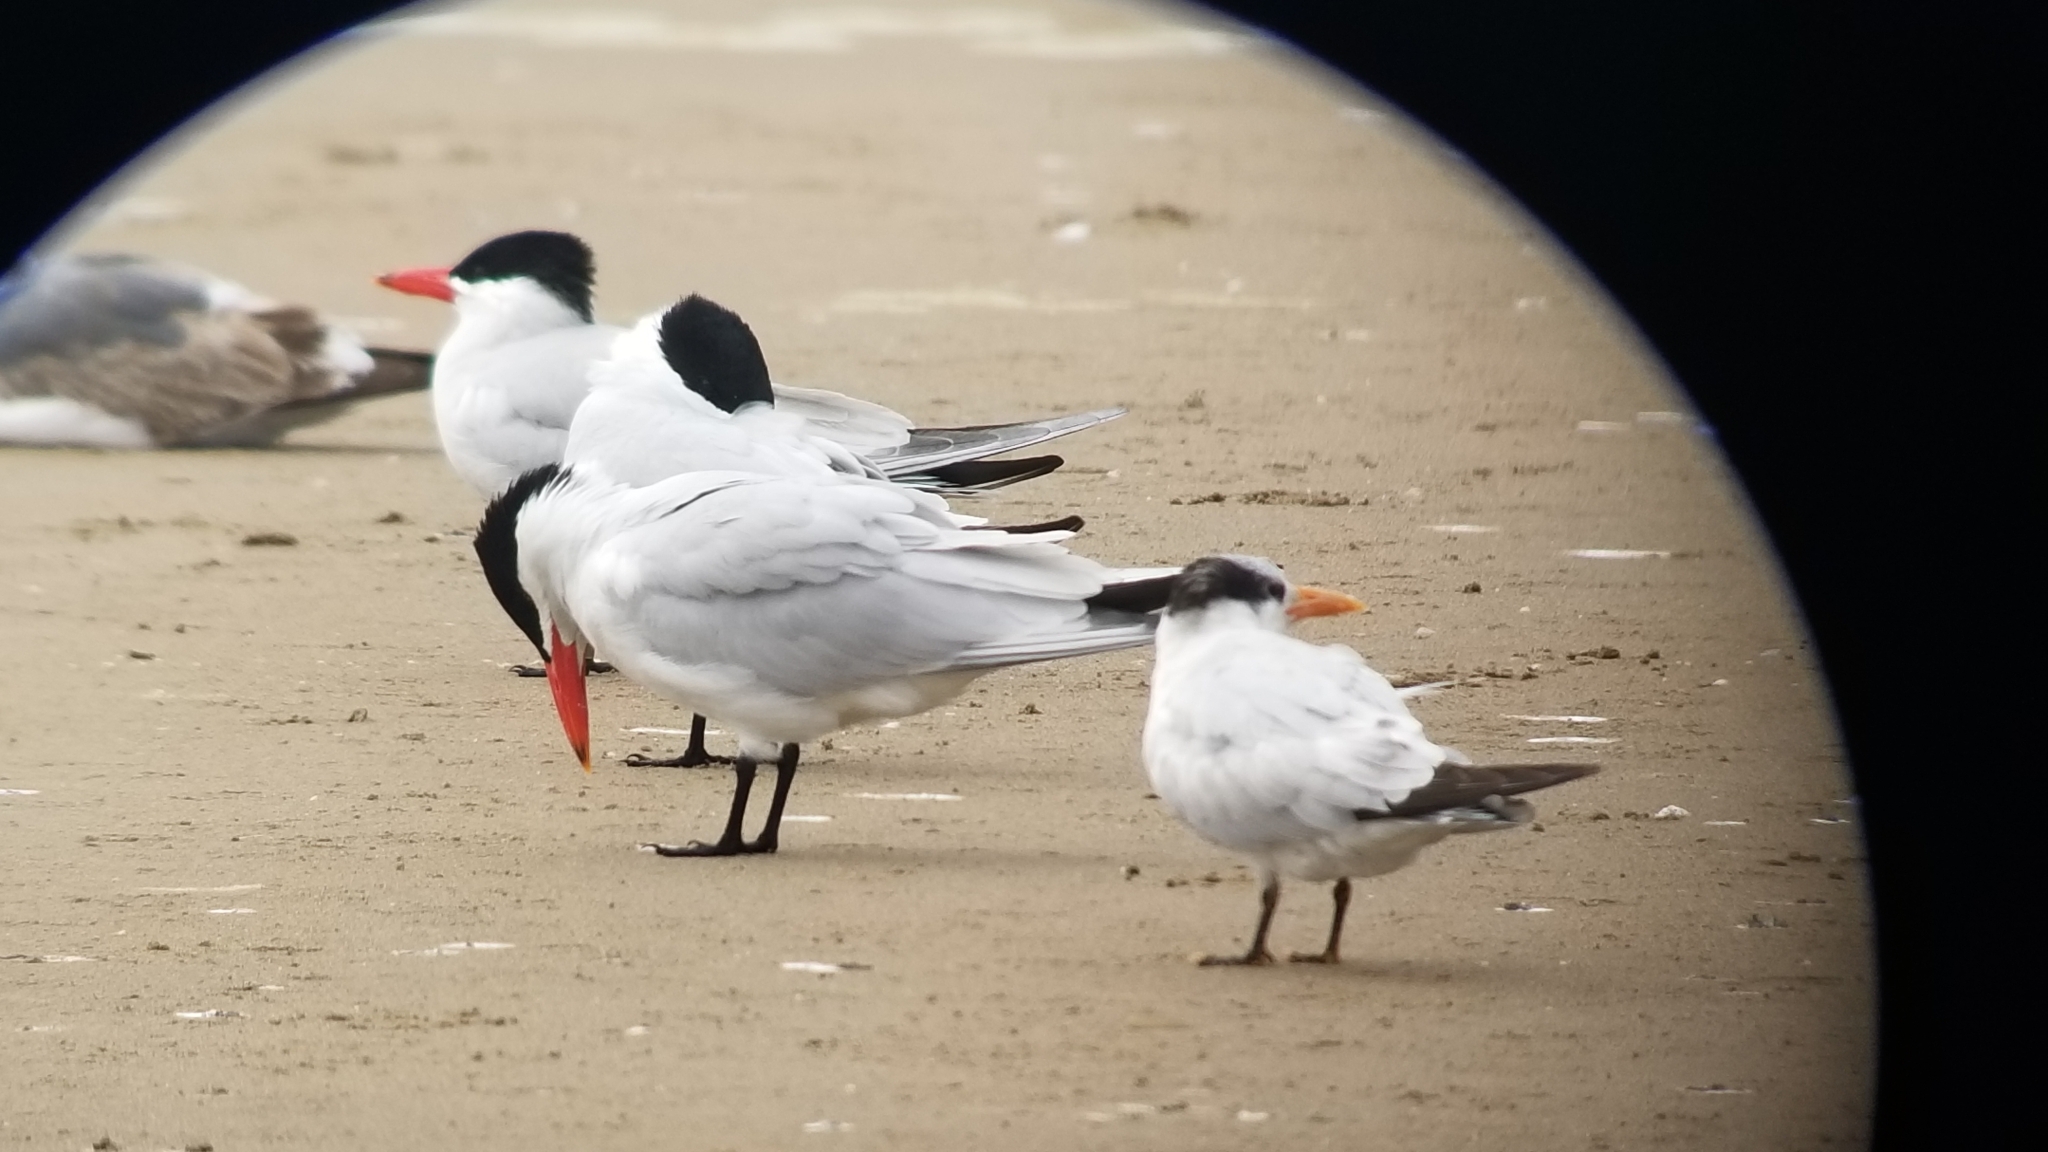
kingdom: Animalia
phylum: Chordata
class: Aves
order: Charadriiformes
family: Laridae
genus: Thalasseus
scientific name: Thalasseus maximus
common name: Royal tern
